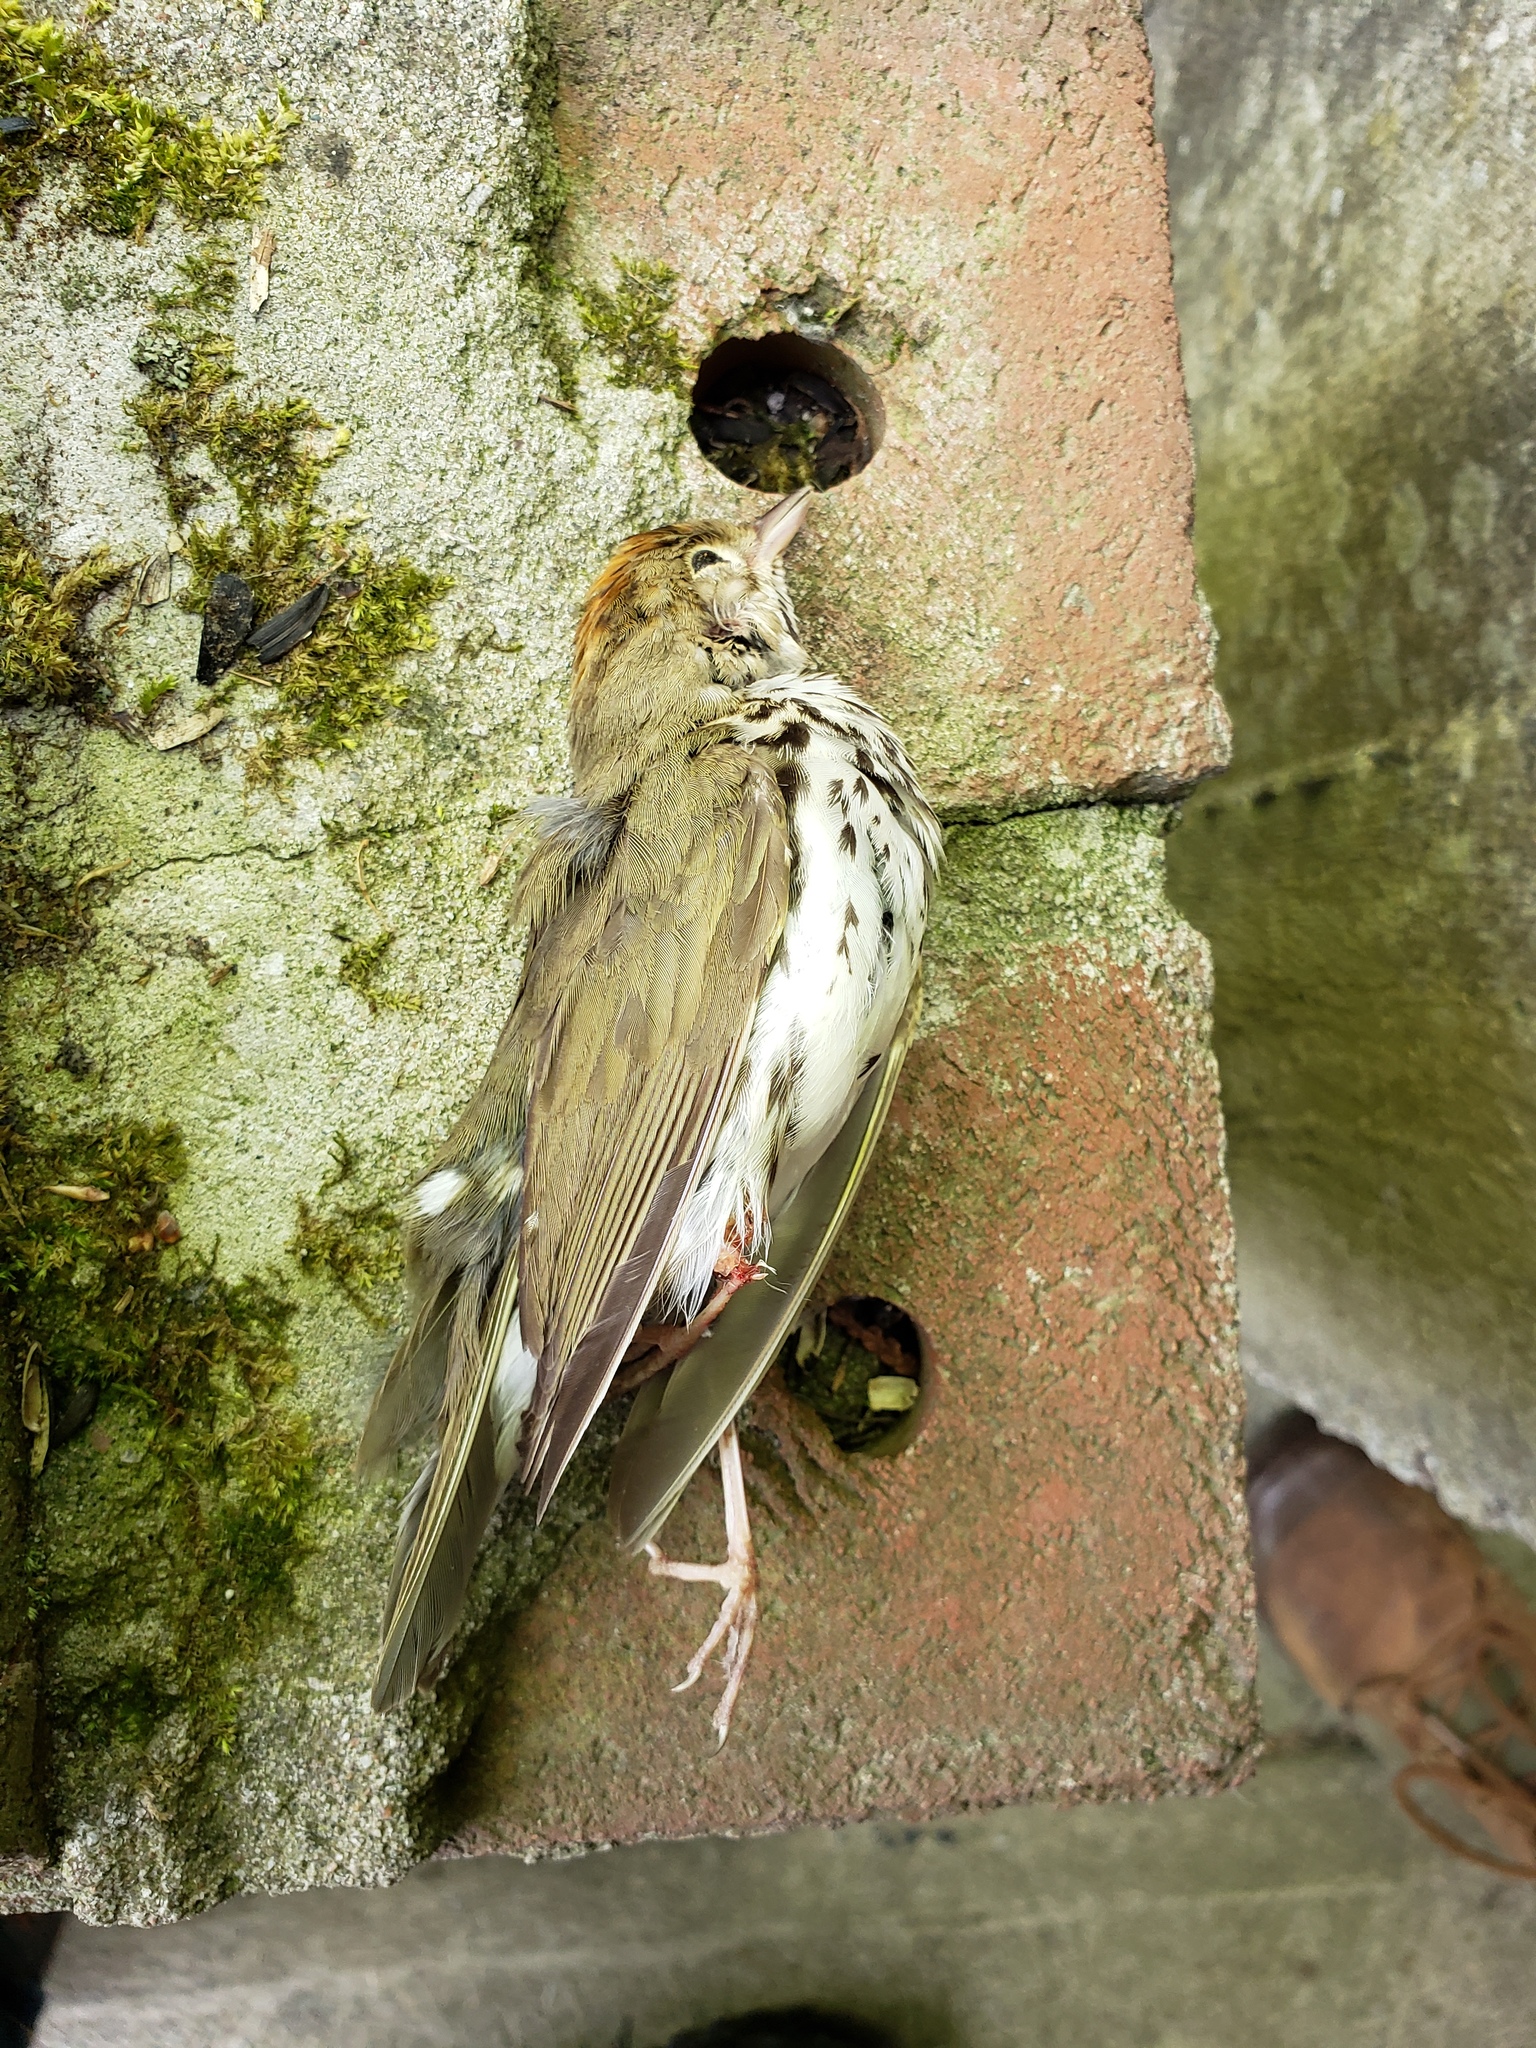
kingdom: Animalia
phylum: Chordata
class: Aves
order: Passeriformes
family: Parulidae
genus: Seiurus
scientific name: Seiurus aurocapilla
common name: Ovenbird
